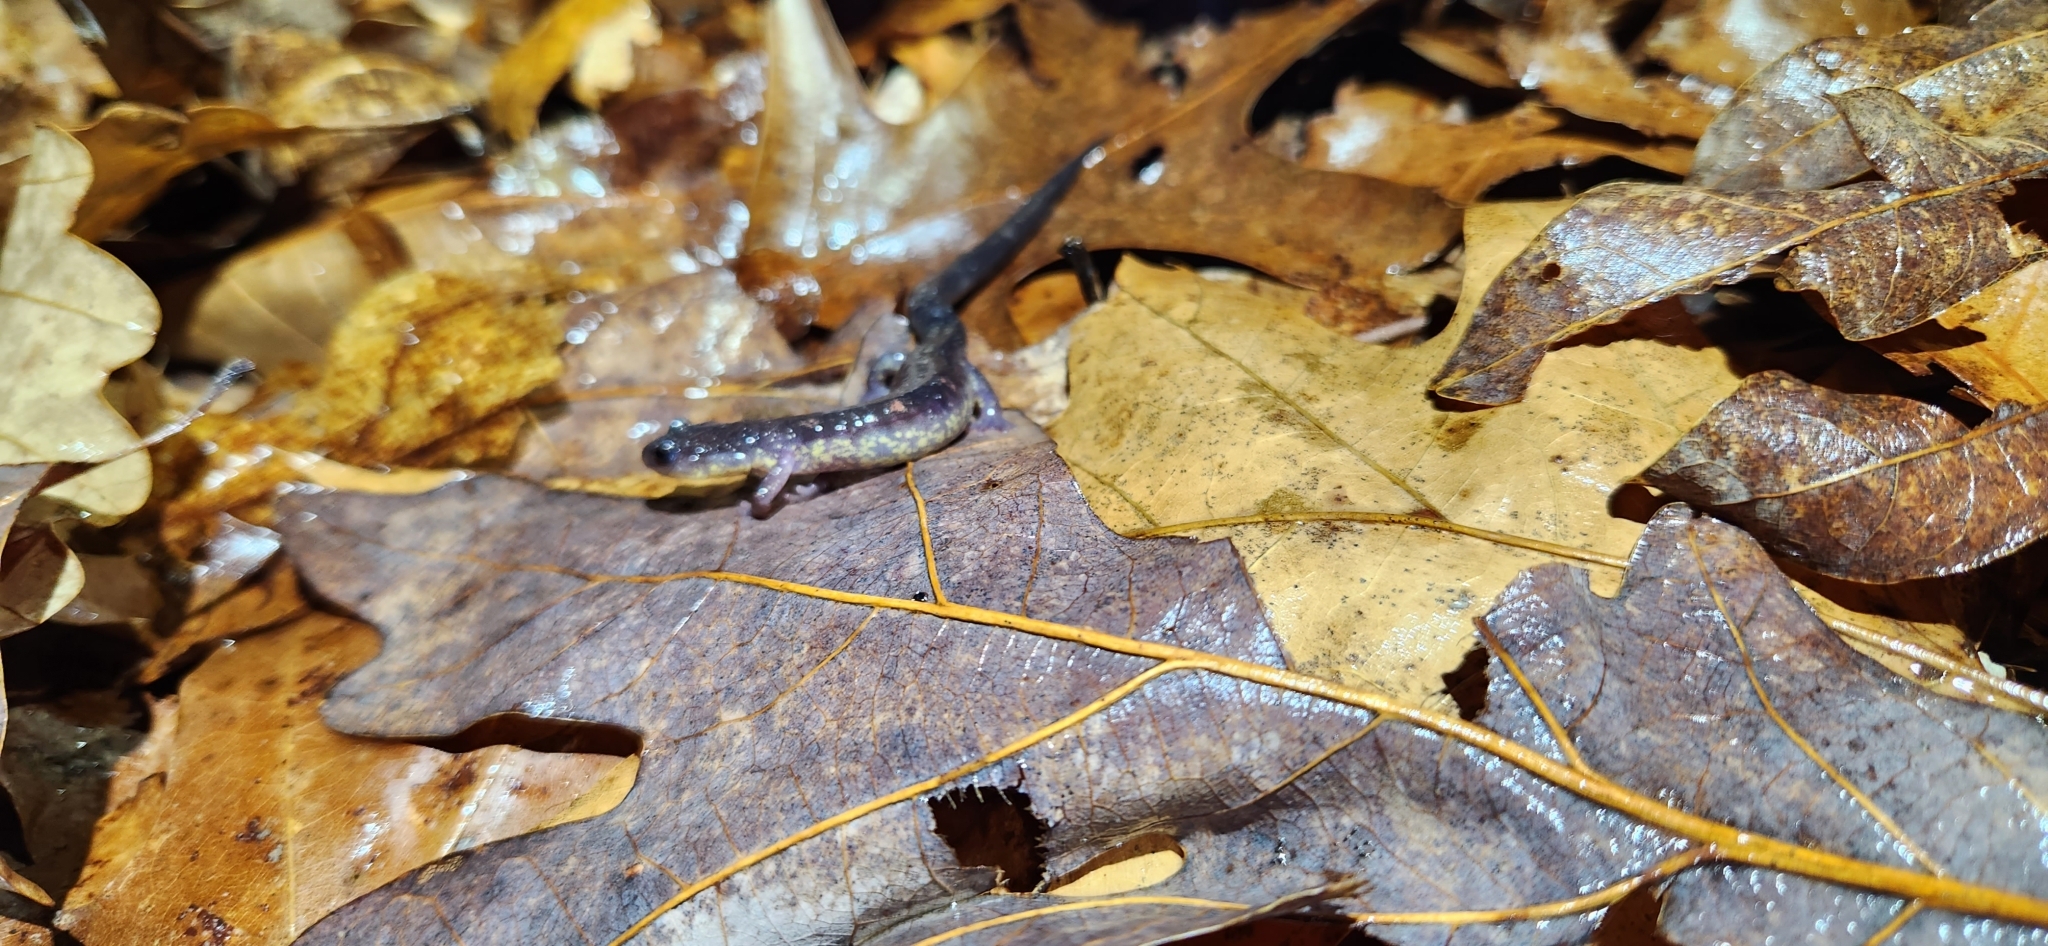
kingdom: Animalia
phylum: Chordata
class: Amphibia
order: Caudata
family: Plethodontidae
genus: Plethodon
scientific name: Plethodon jacksoni
